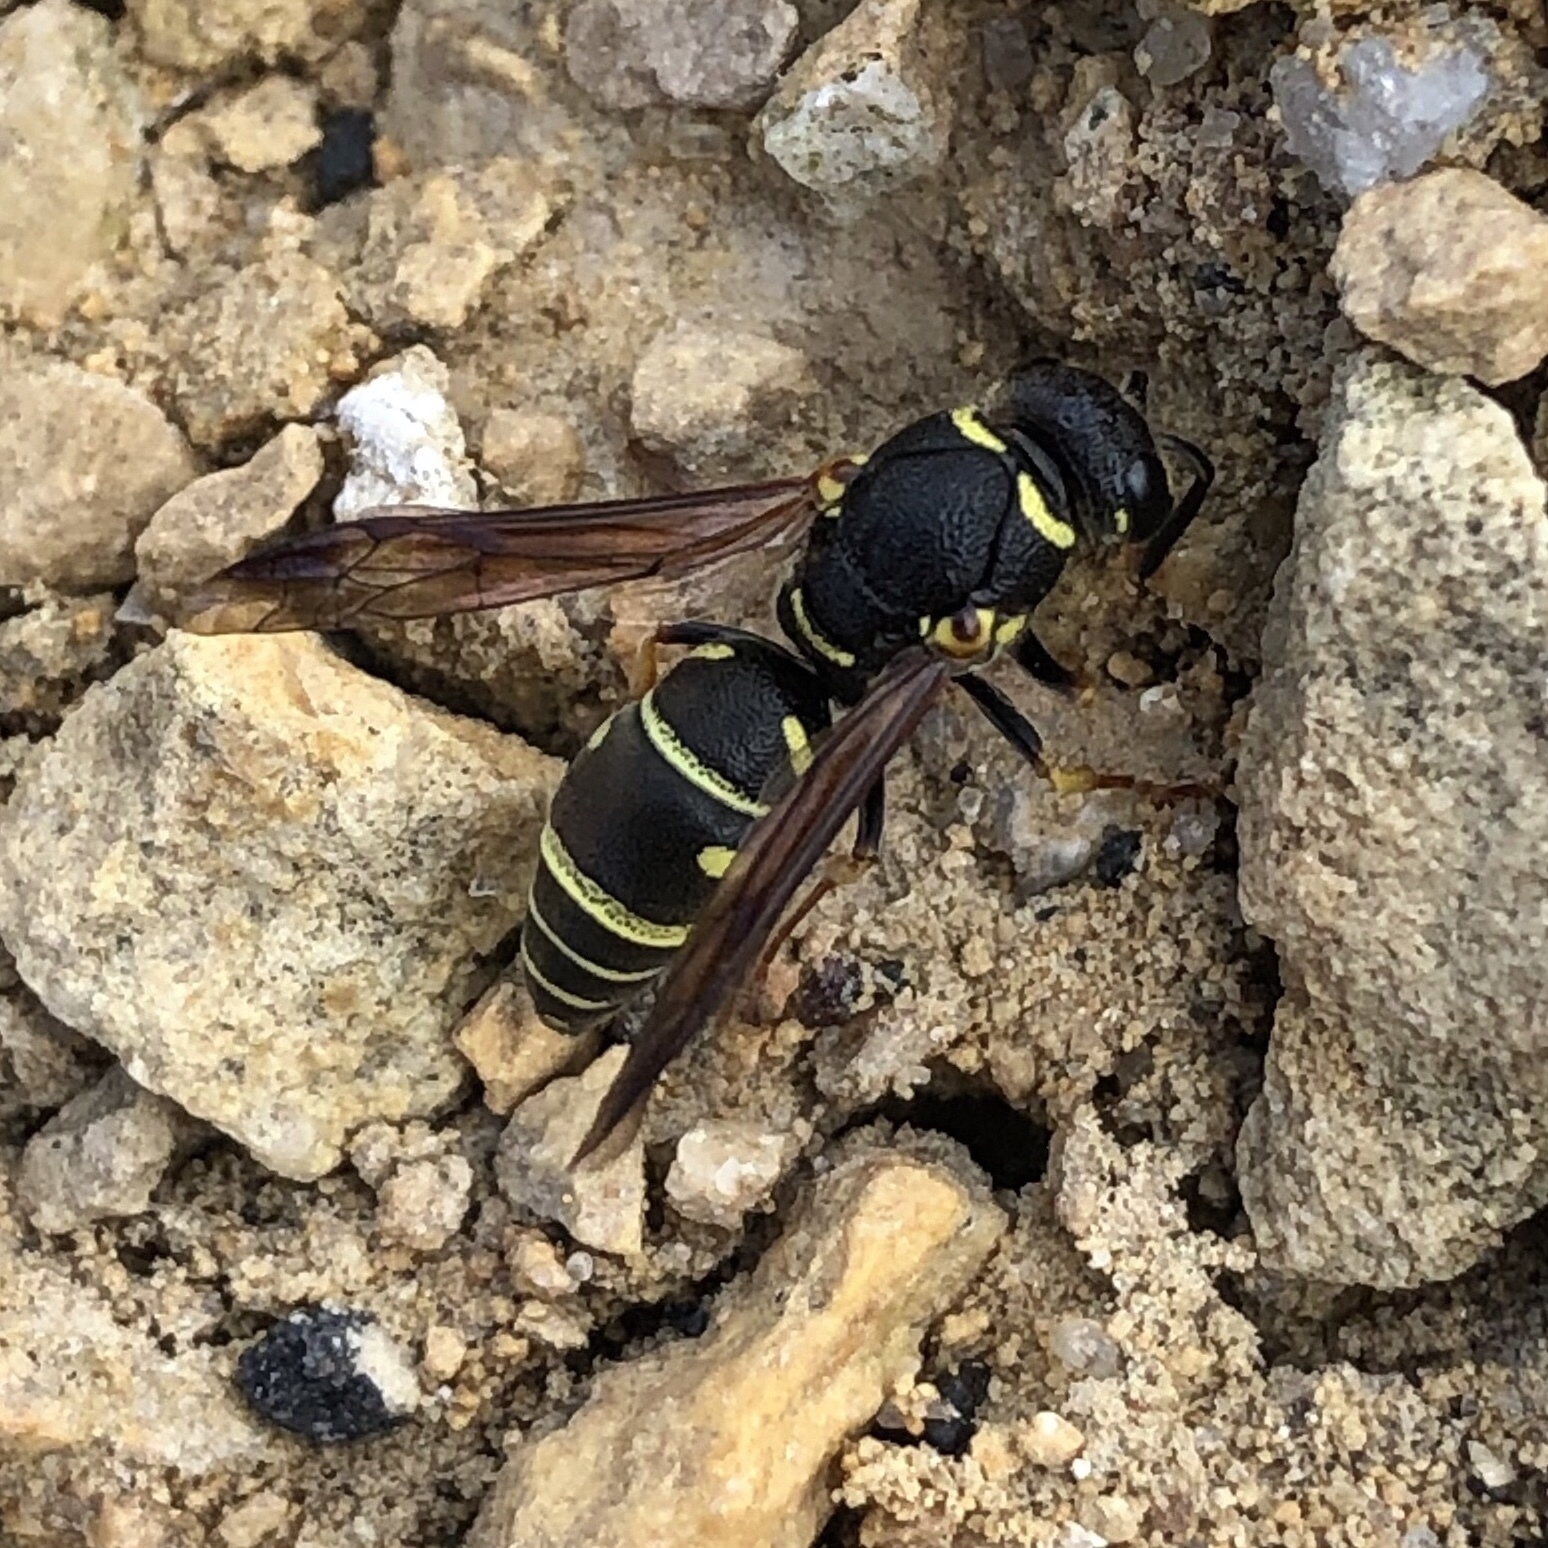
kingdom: Animalia
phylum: Arthropoda
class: Insecta
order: Hymenoptera
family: Eumenidae
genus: Parancistrocerus
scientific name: Parancistrocerus leionotus
